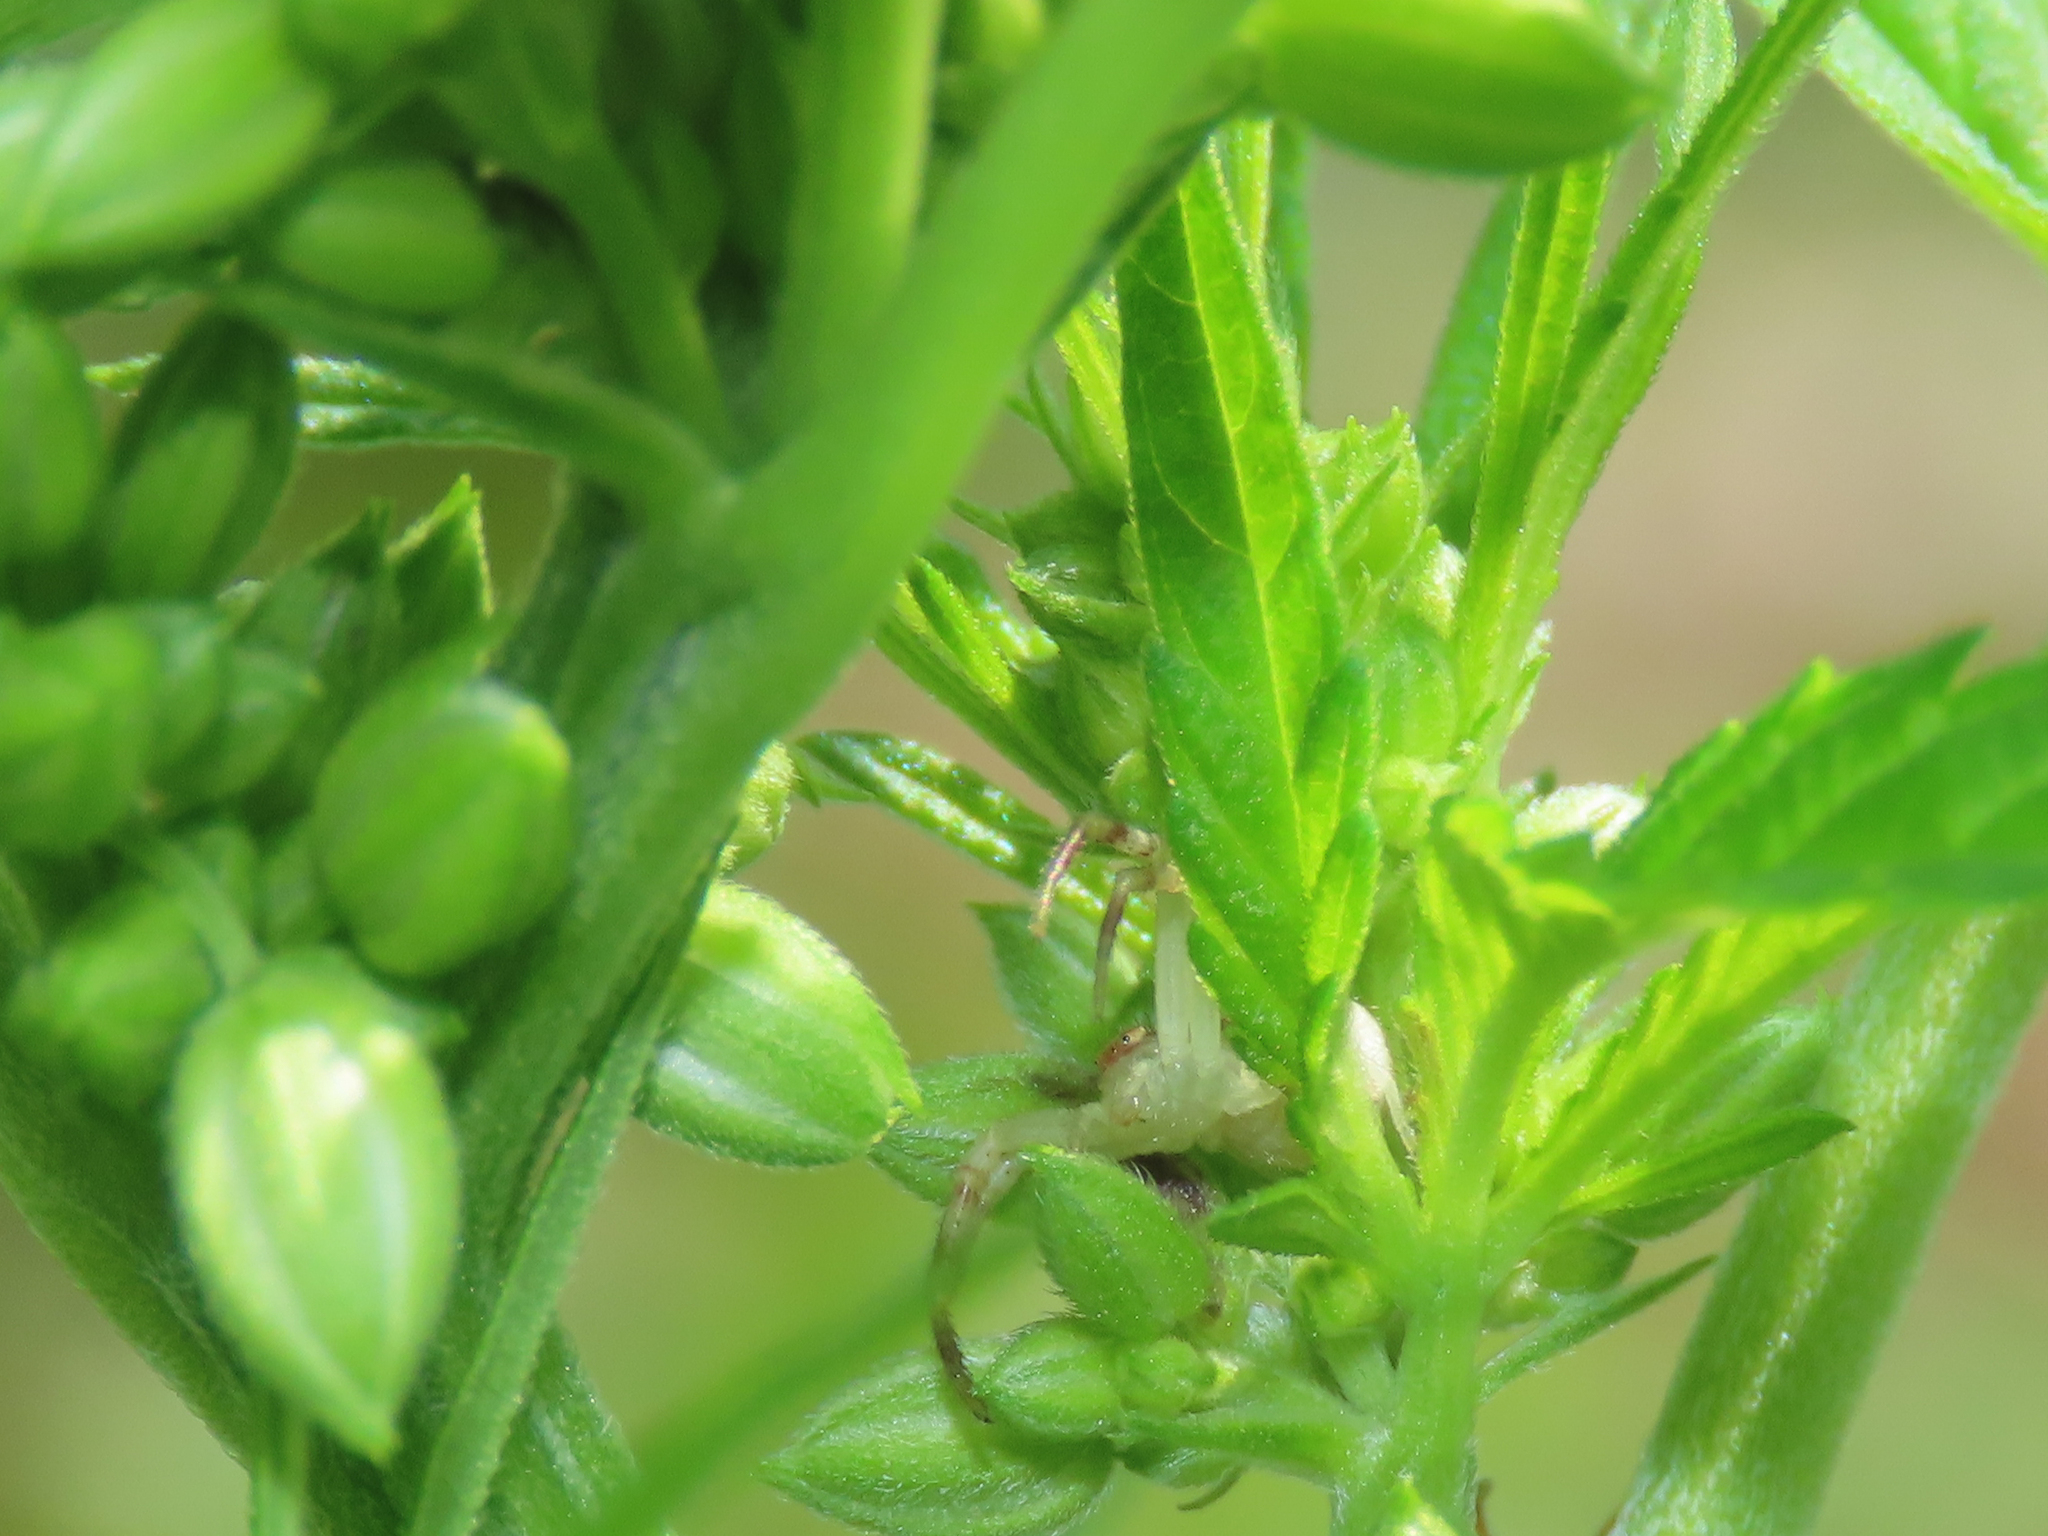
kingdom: Animalia
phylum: Arthropoda
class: Arachnida
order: Araneae
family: Thomisidae
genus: Mecaphesa
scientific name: Mecaphesa asperata
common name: Crab spiders
